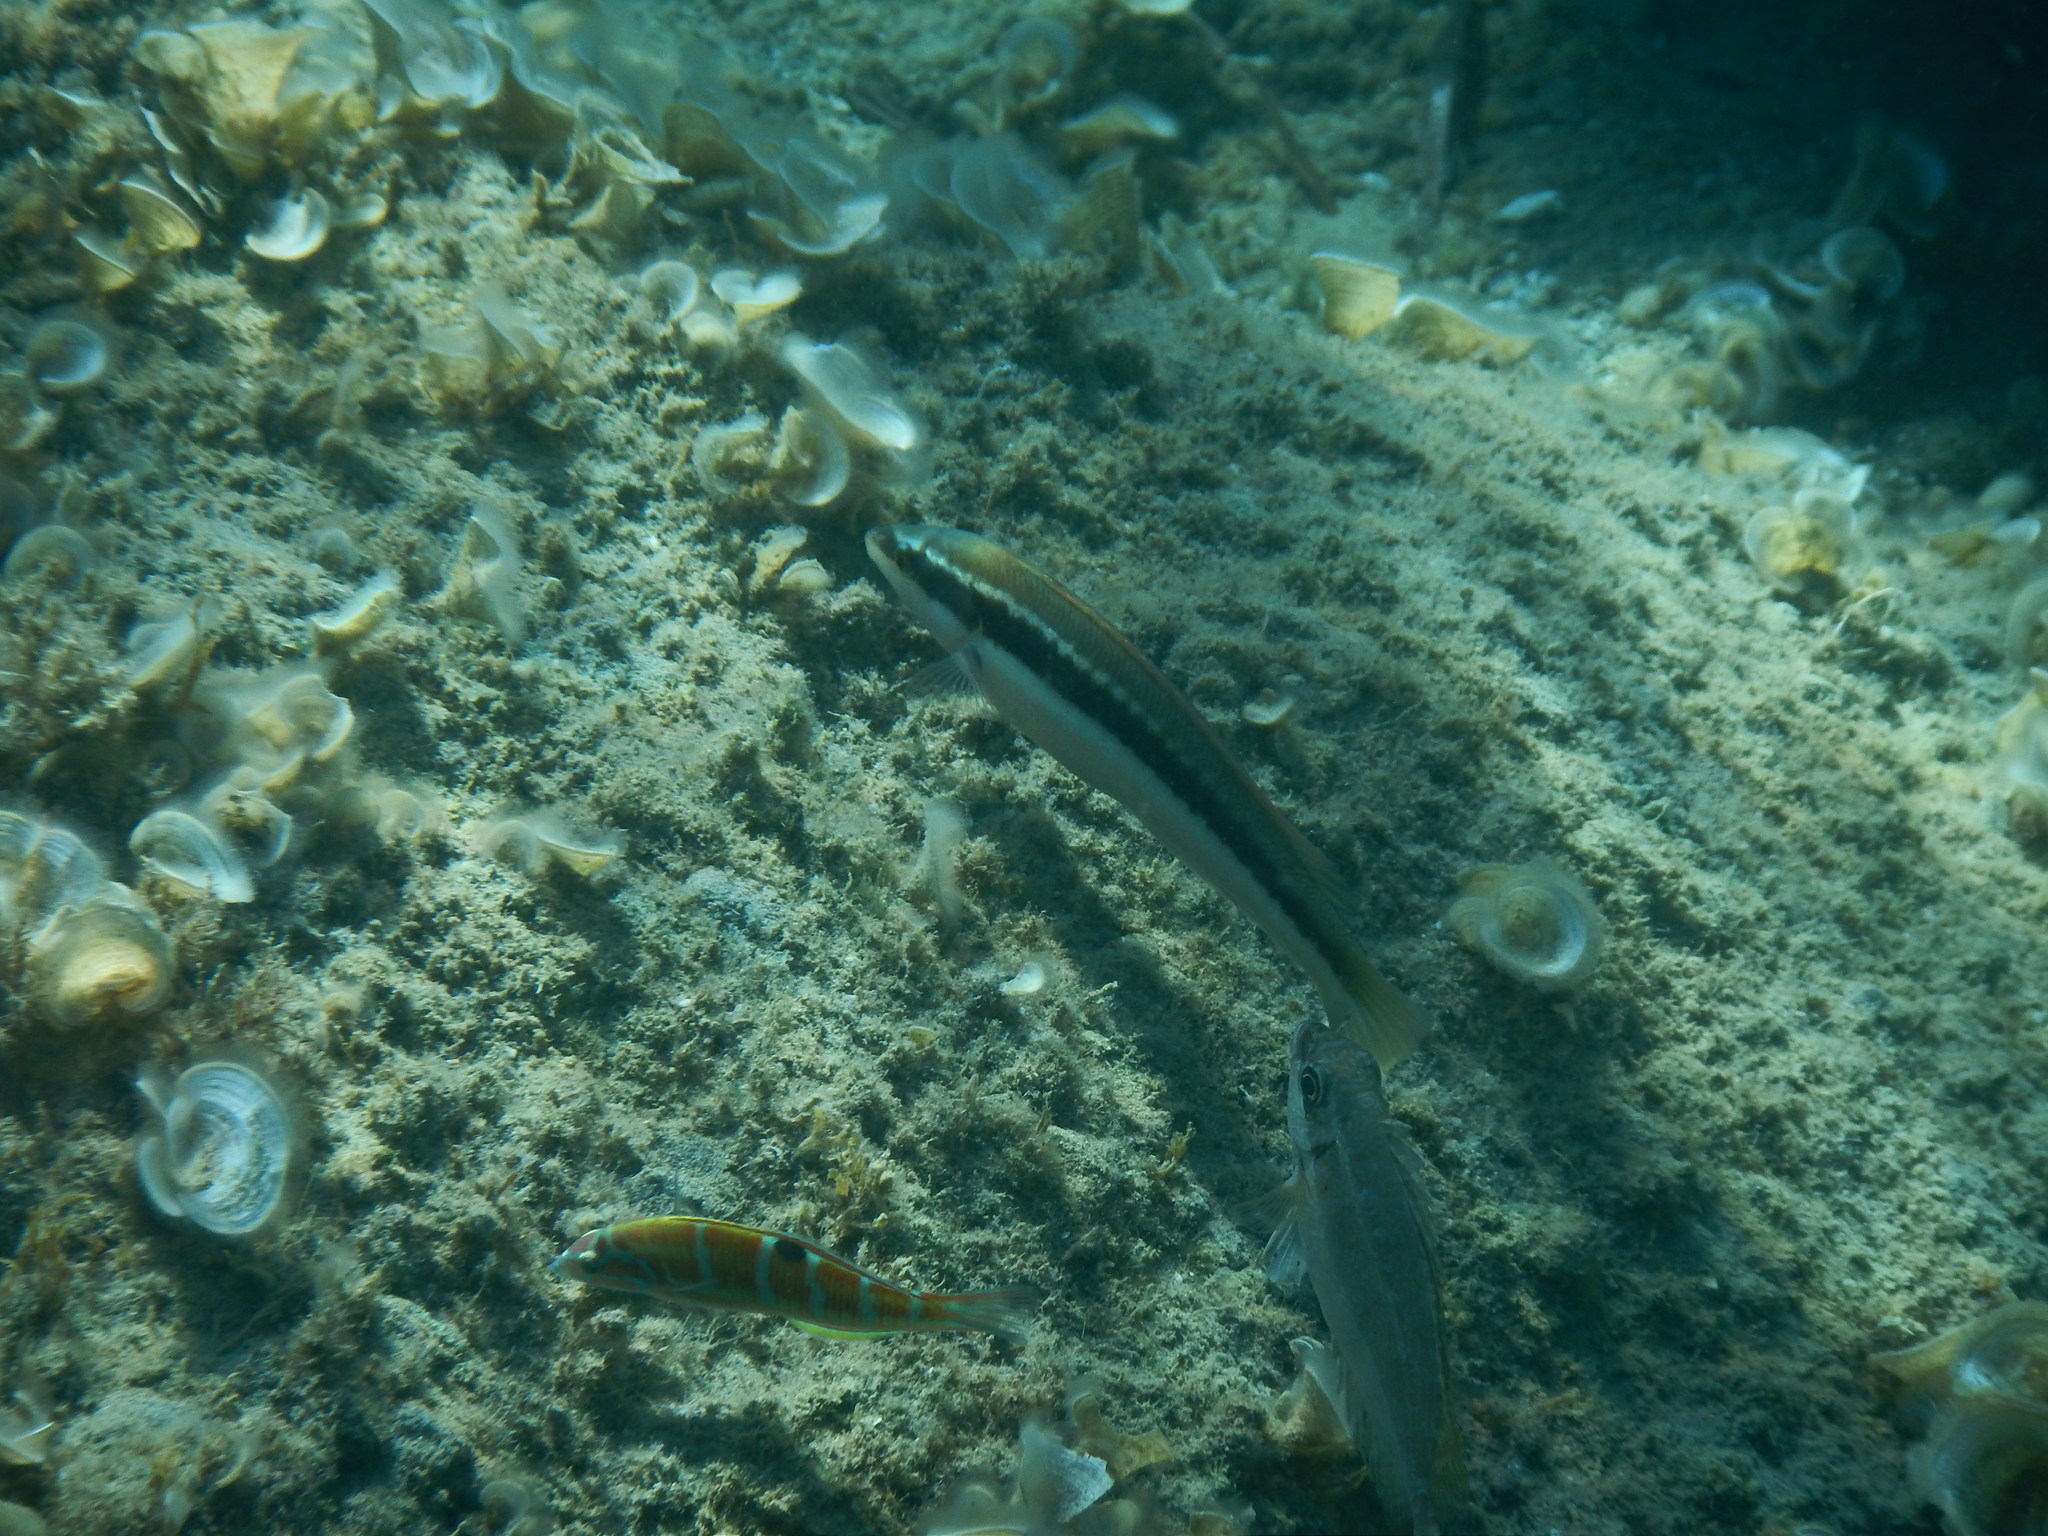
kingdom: Animalia
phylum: Chordata
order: Perciformes
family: Labridae
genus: Coris
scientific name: Coris julis
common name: Rainbow wrasse
